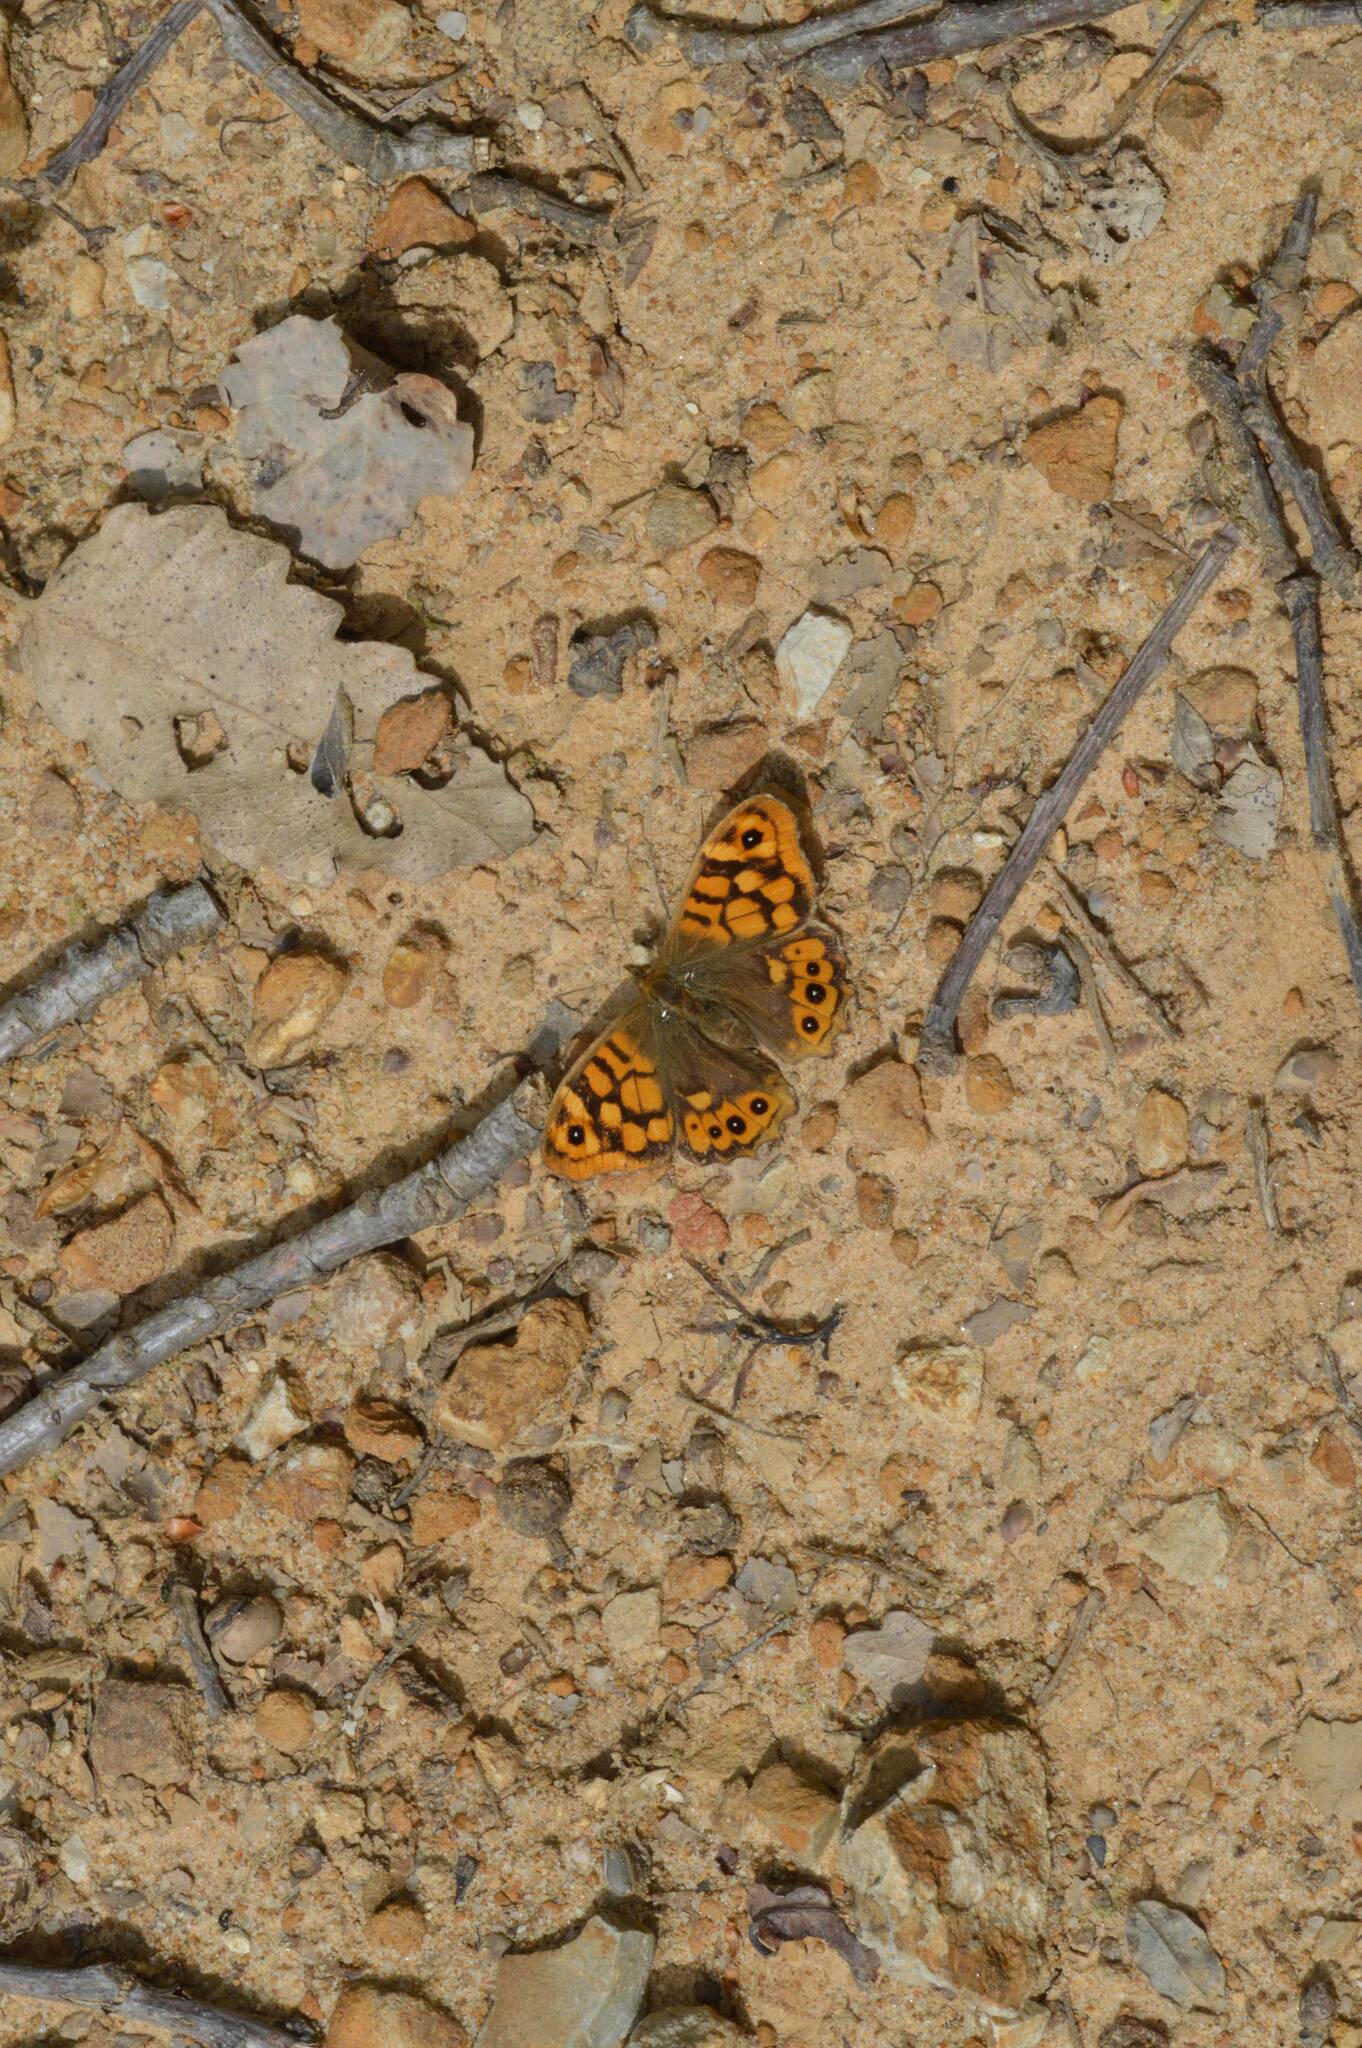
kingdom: Animalia
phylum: Arthropoda
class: Insecta
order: Lepidoptera
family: Nymphalidae
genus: Pararge
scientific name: Pararge aegeria
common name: Speckled wood
